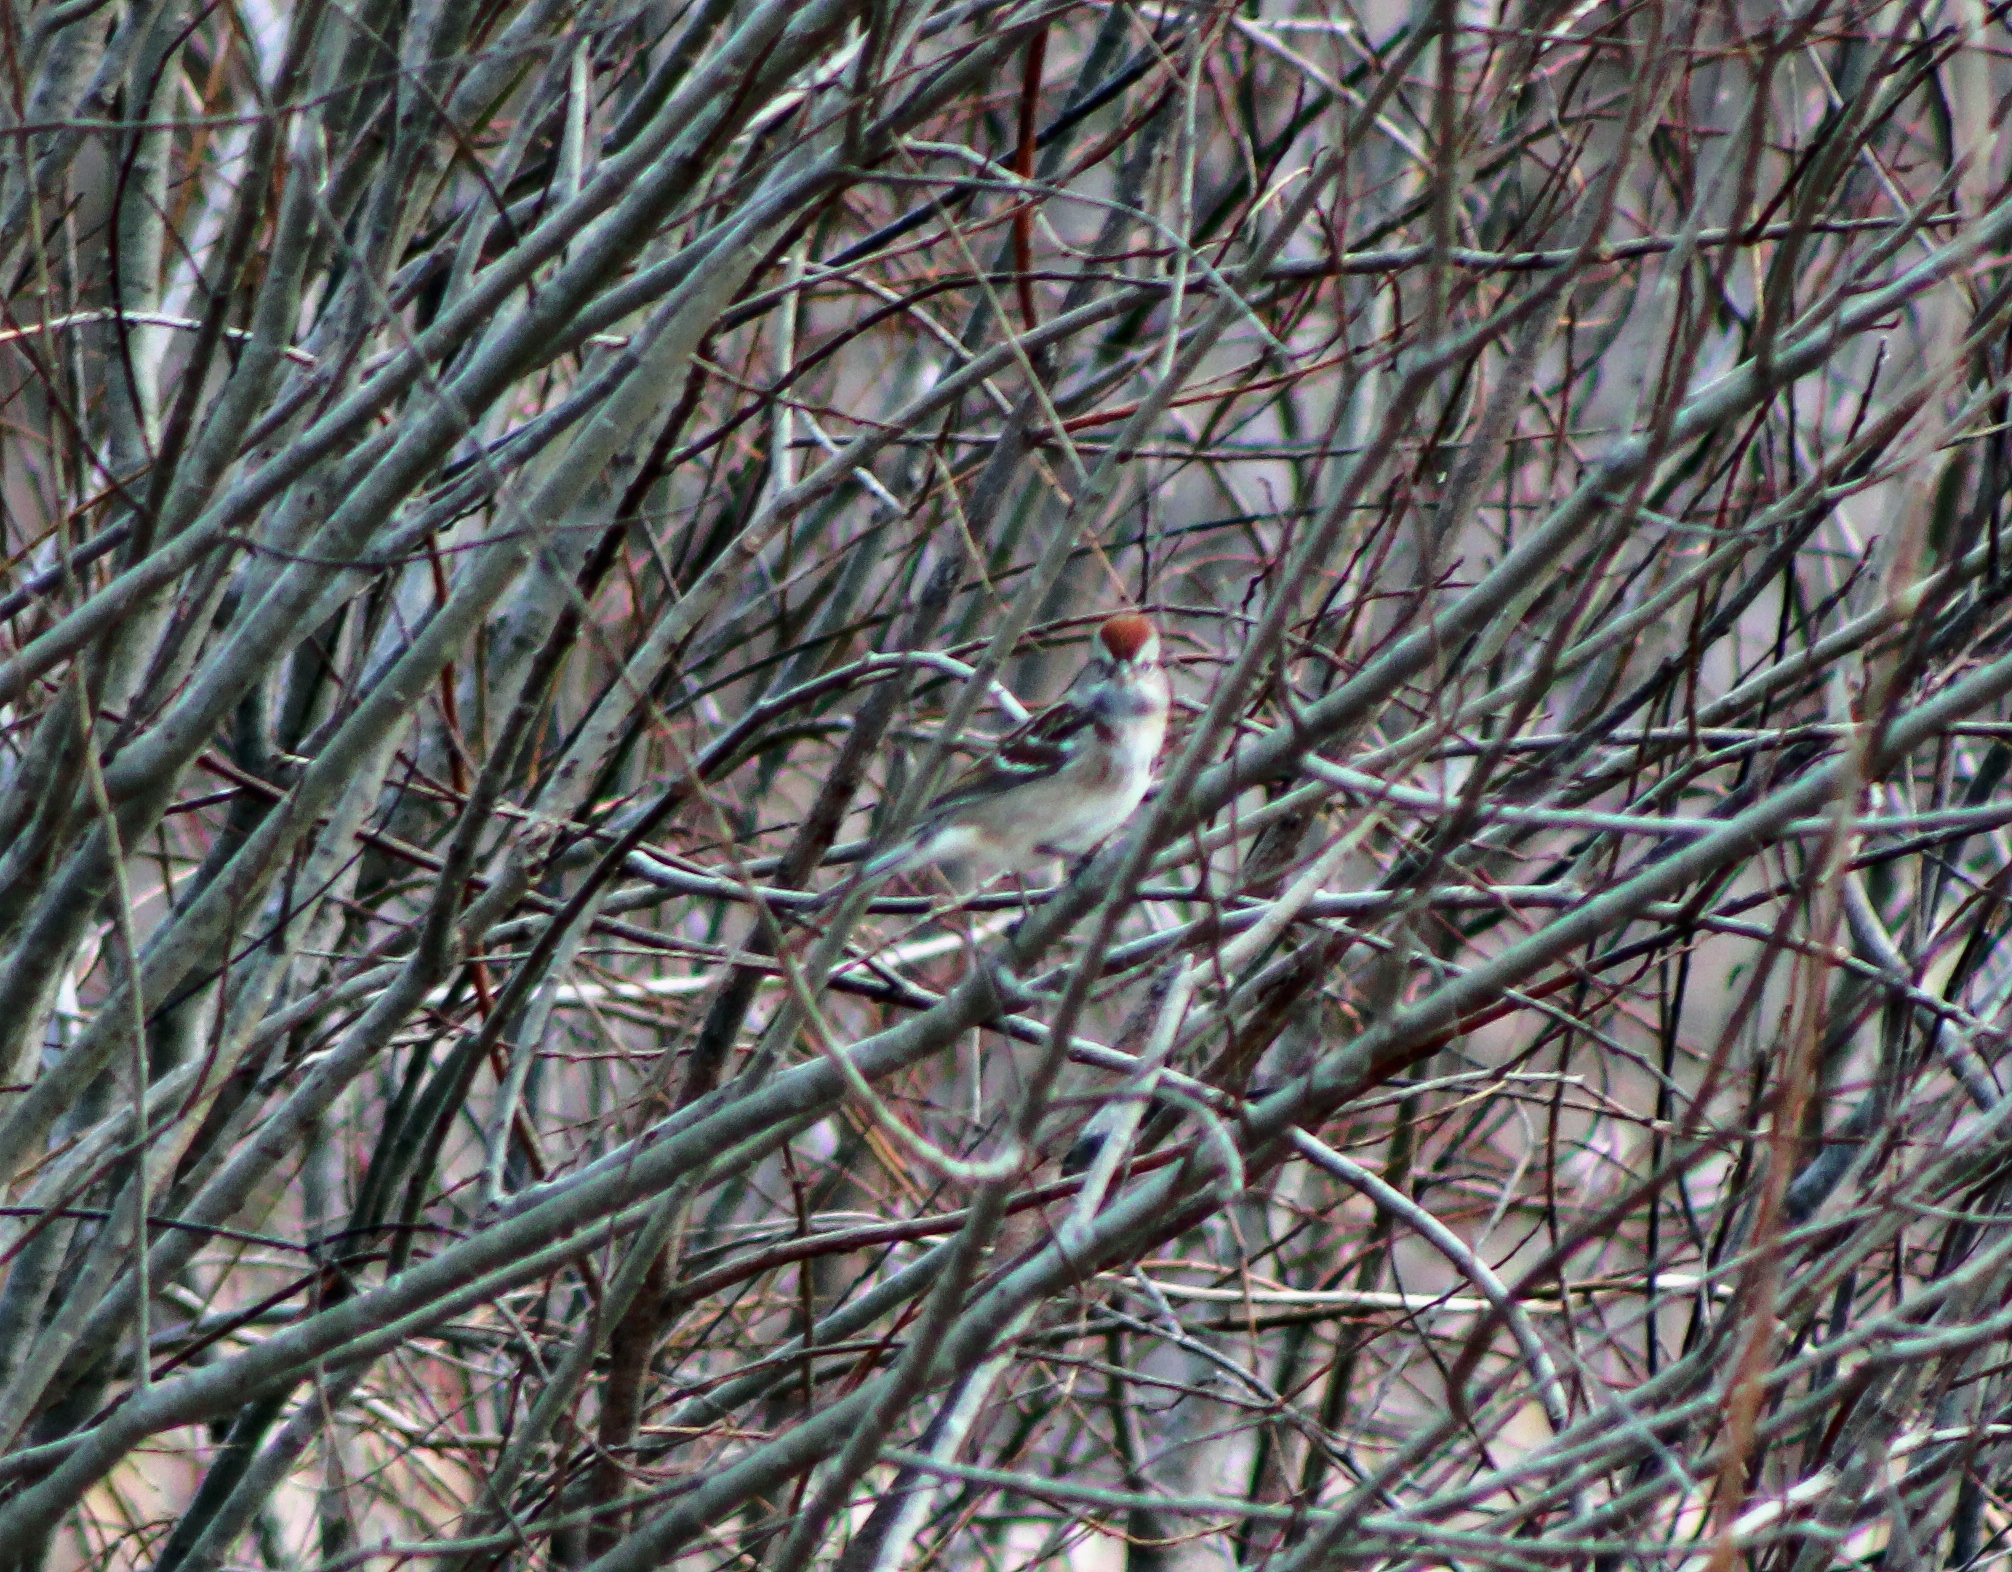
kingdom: Animalia
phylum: Chordata
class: Aves
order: Passeriformes
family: Passerellidae
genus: Spizelloides
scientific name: Spizelloides arborea
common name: American tree sparrow
